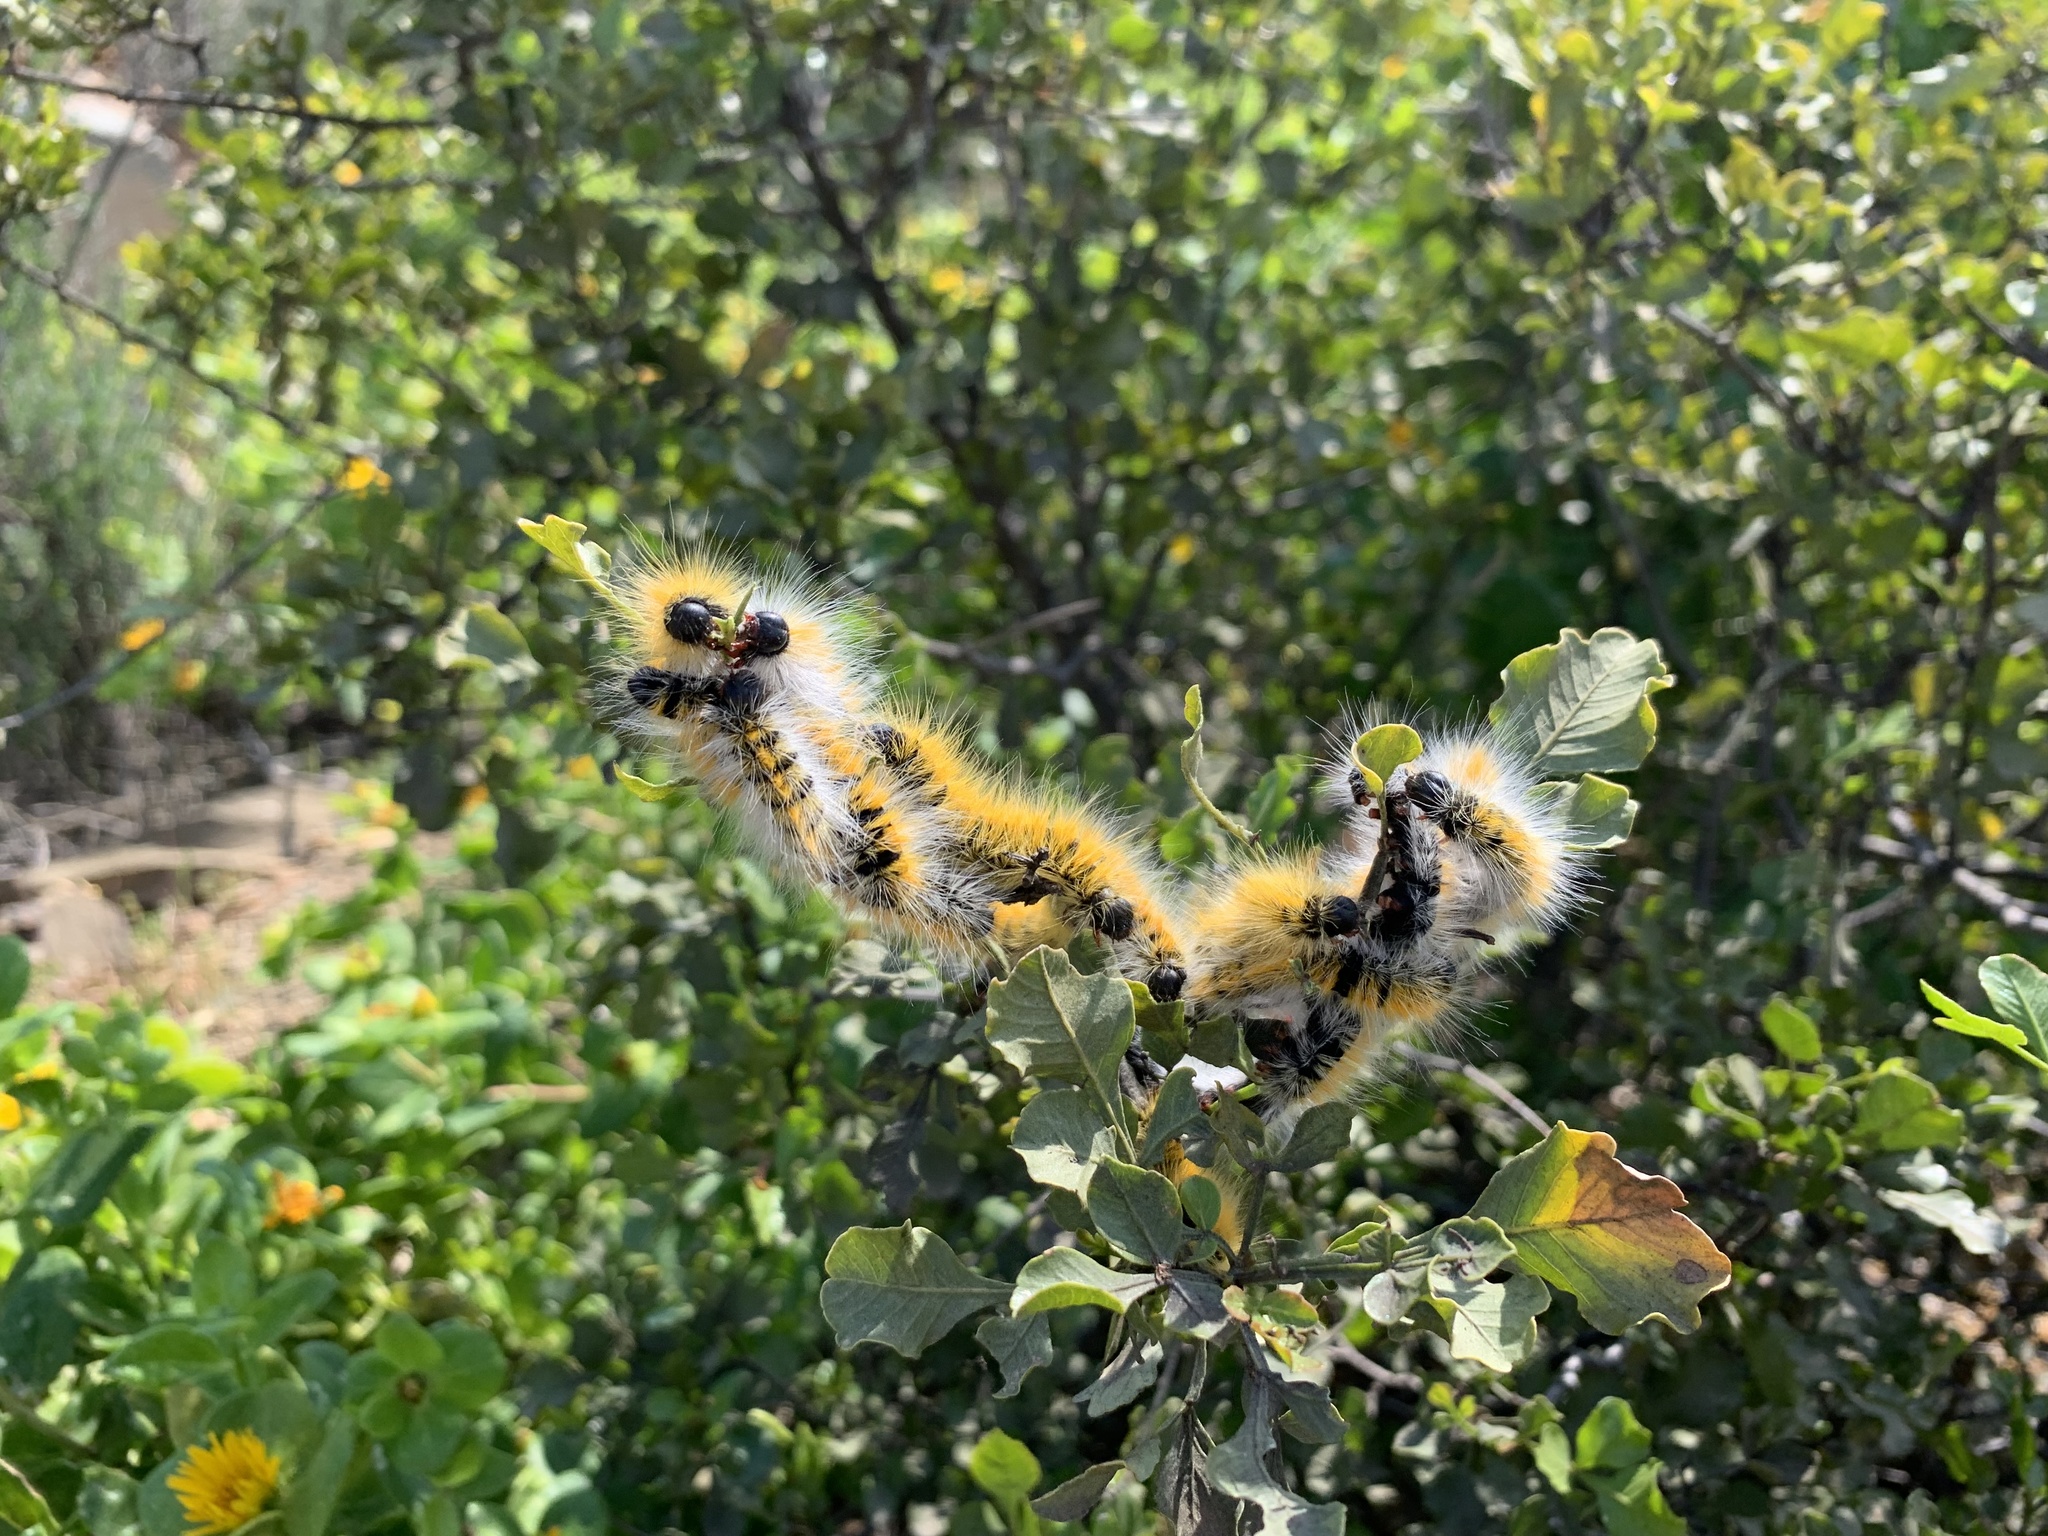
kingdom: Animalia
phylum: Arthropoda
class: Insecta
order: Lepidoptera
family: Lasiocampidae
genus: Bombycomorpha
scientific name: Bombycomorpha dukei
